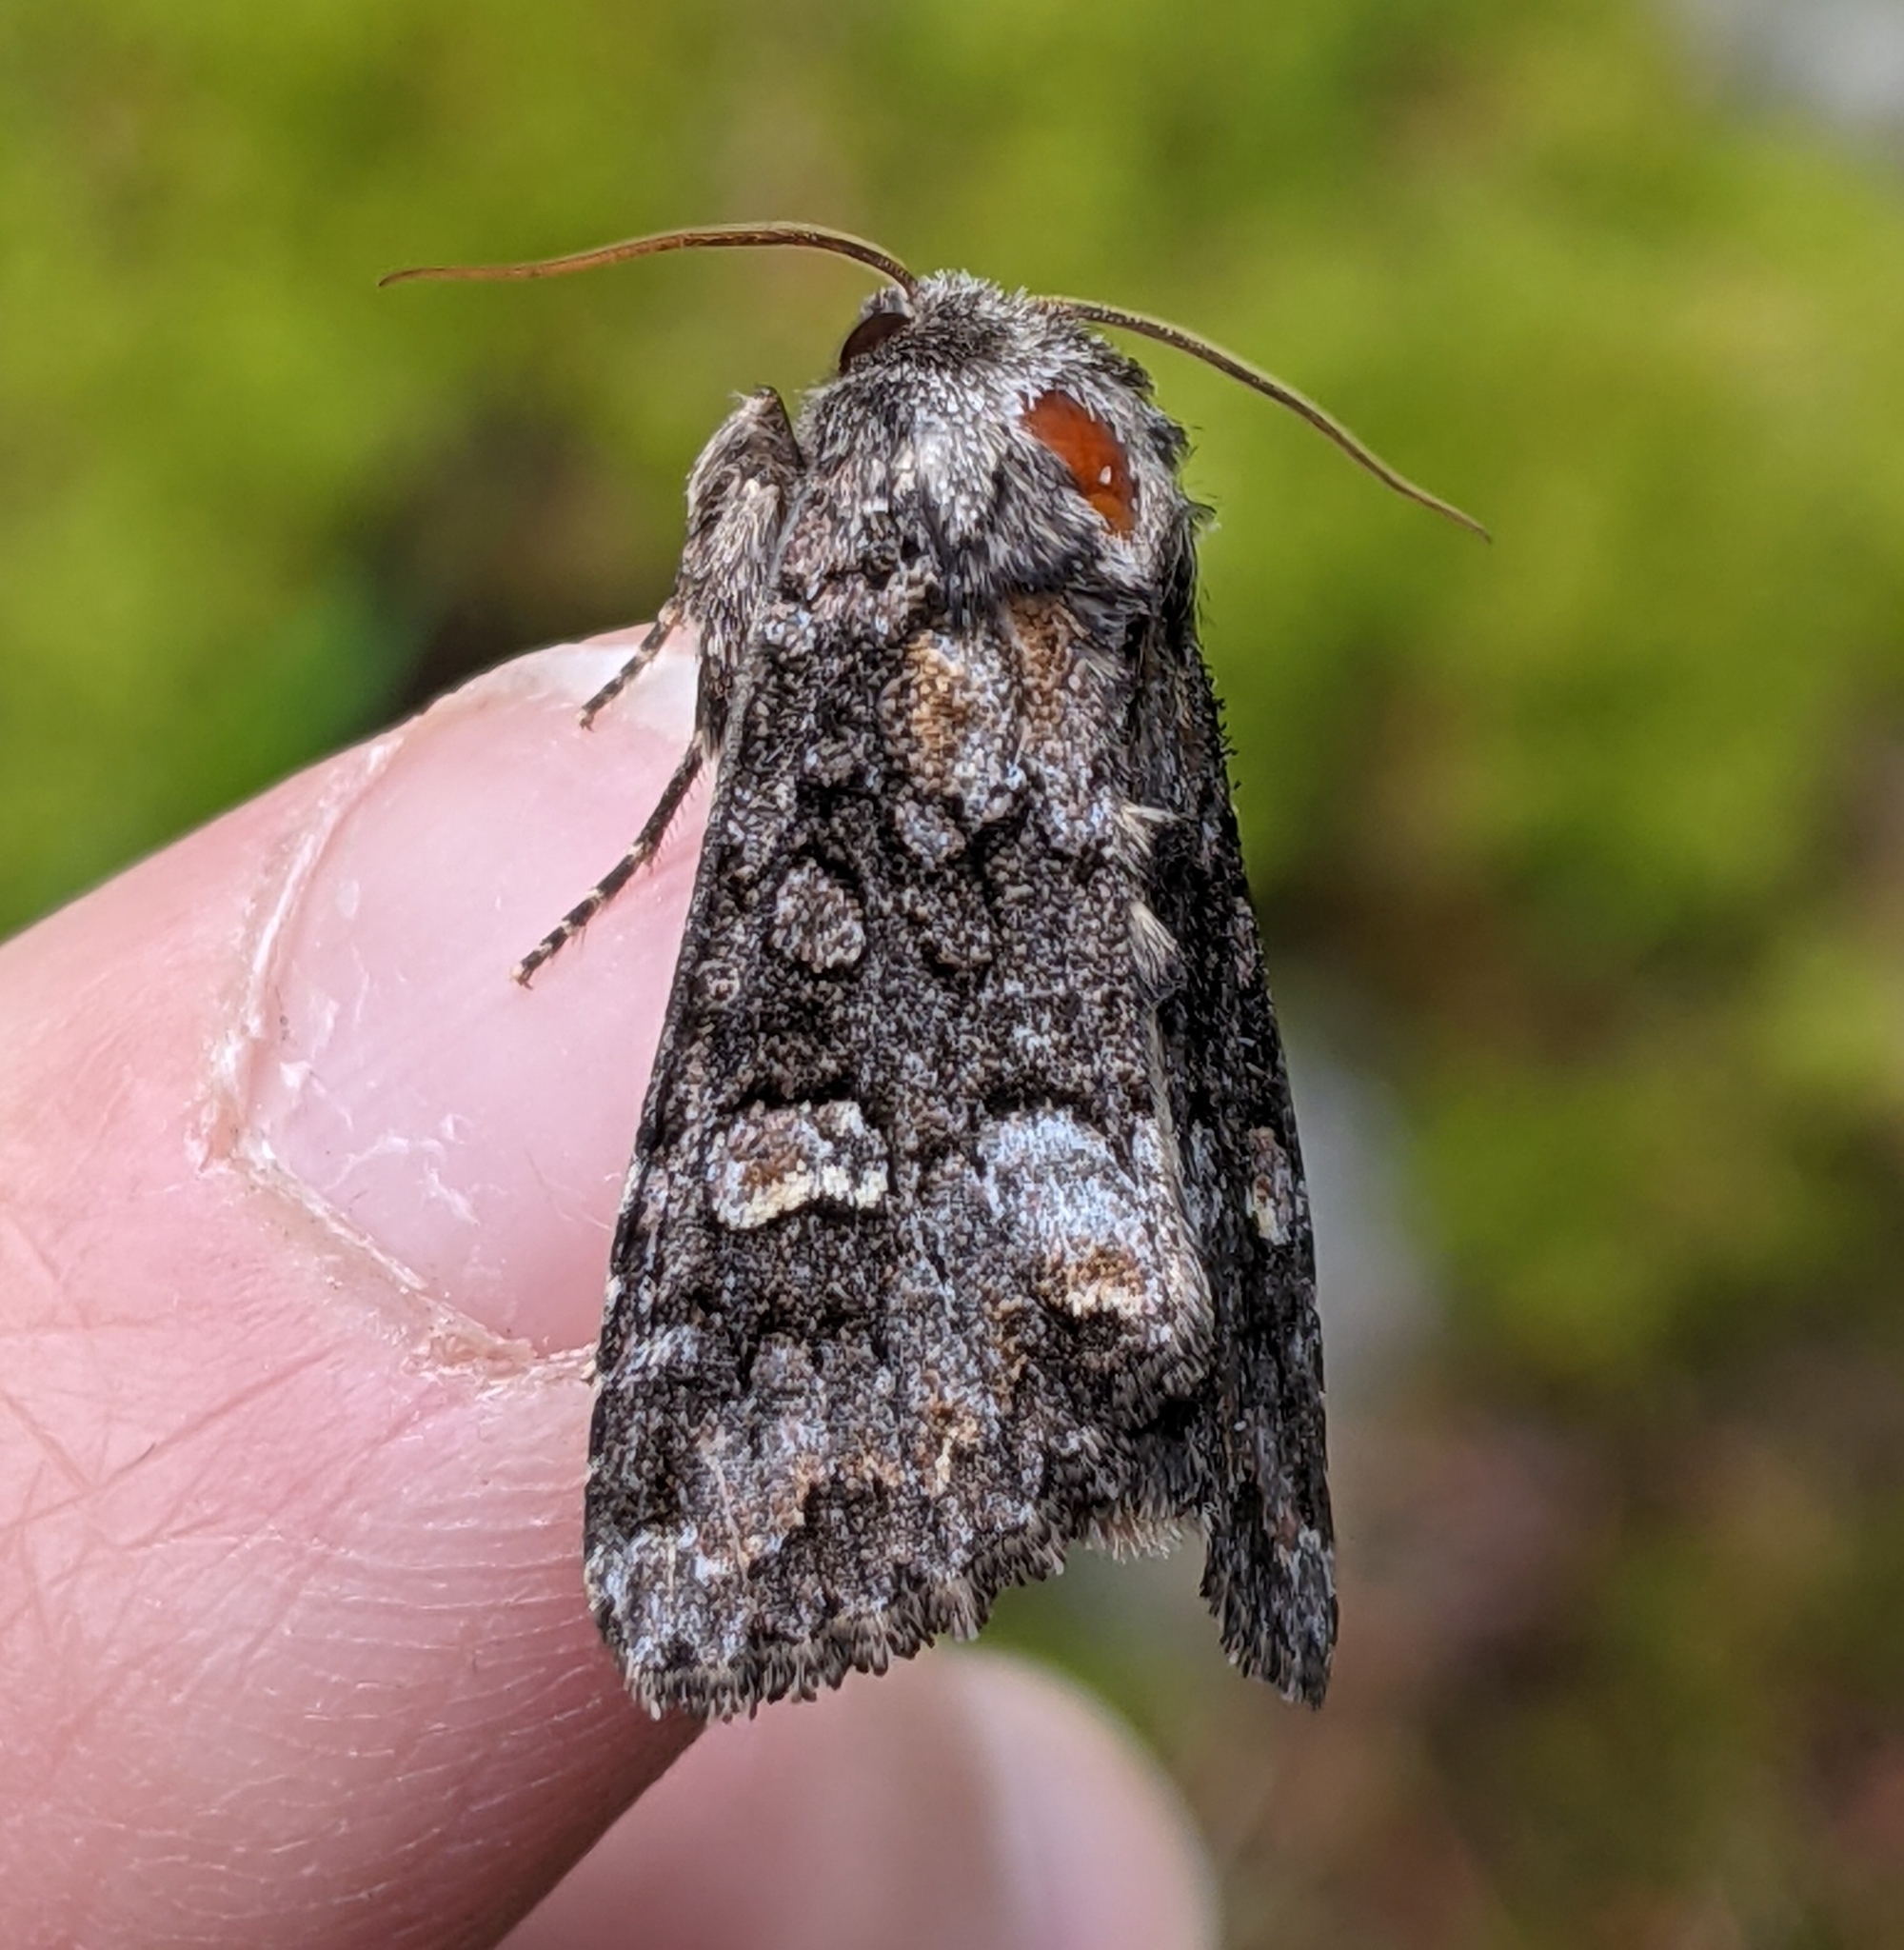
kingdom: Animalia
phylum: Arthropoda
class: Insecta
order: Lepidoptera
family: Noctuidae
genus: Spiramater
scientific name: Spiramater lutra
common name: Otter spiramater moth
